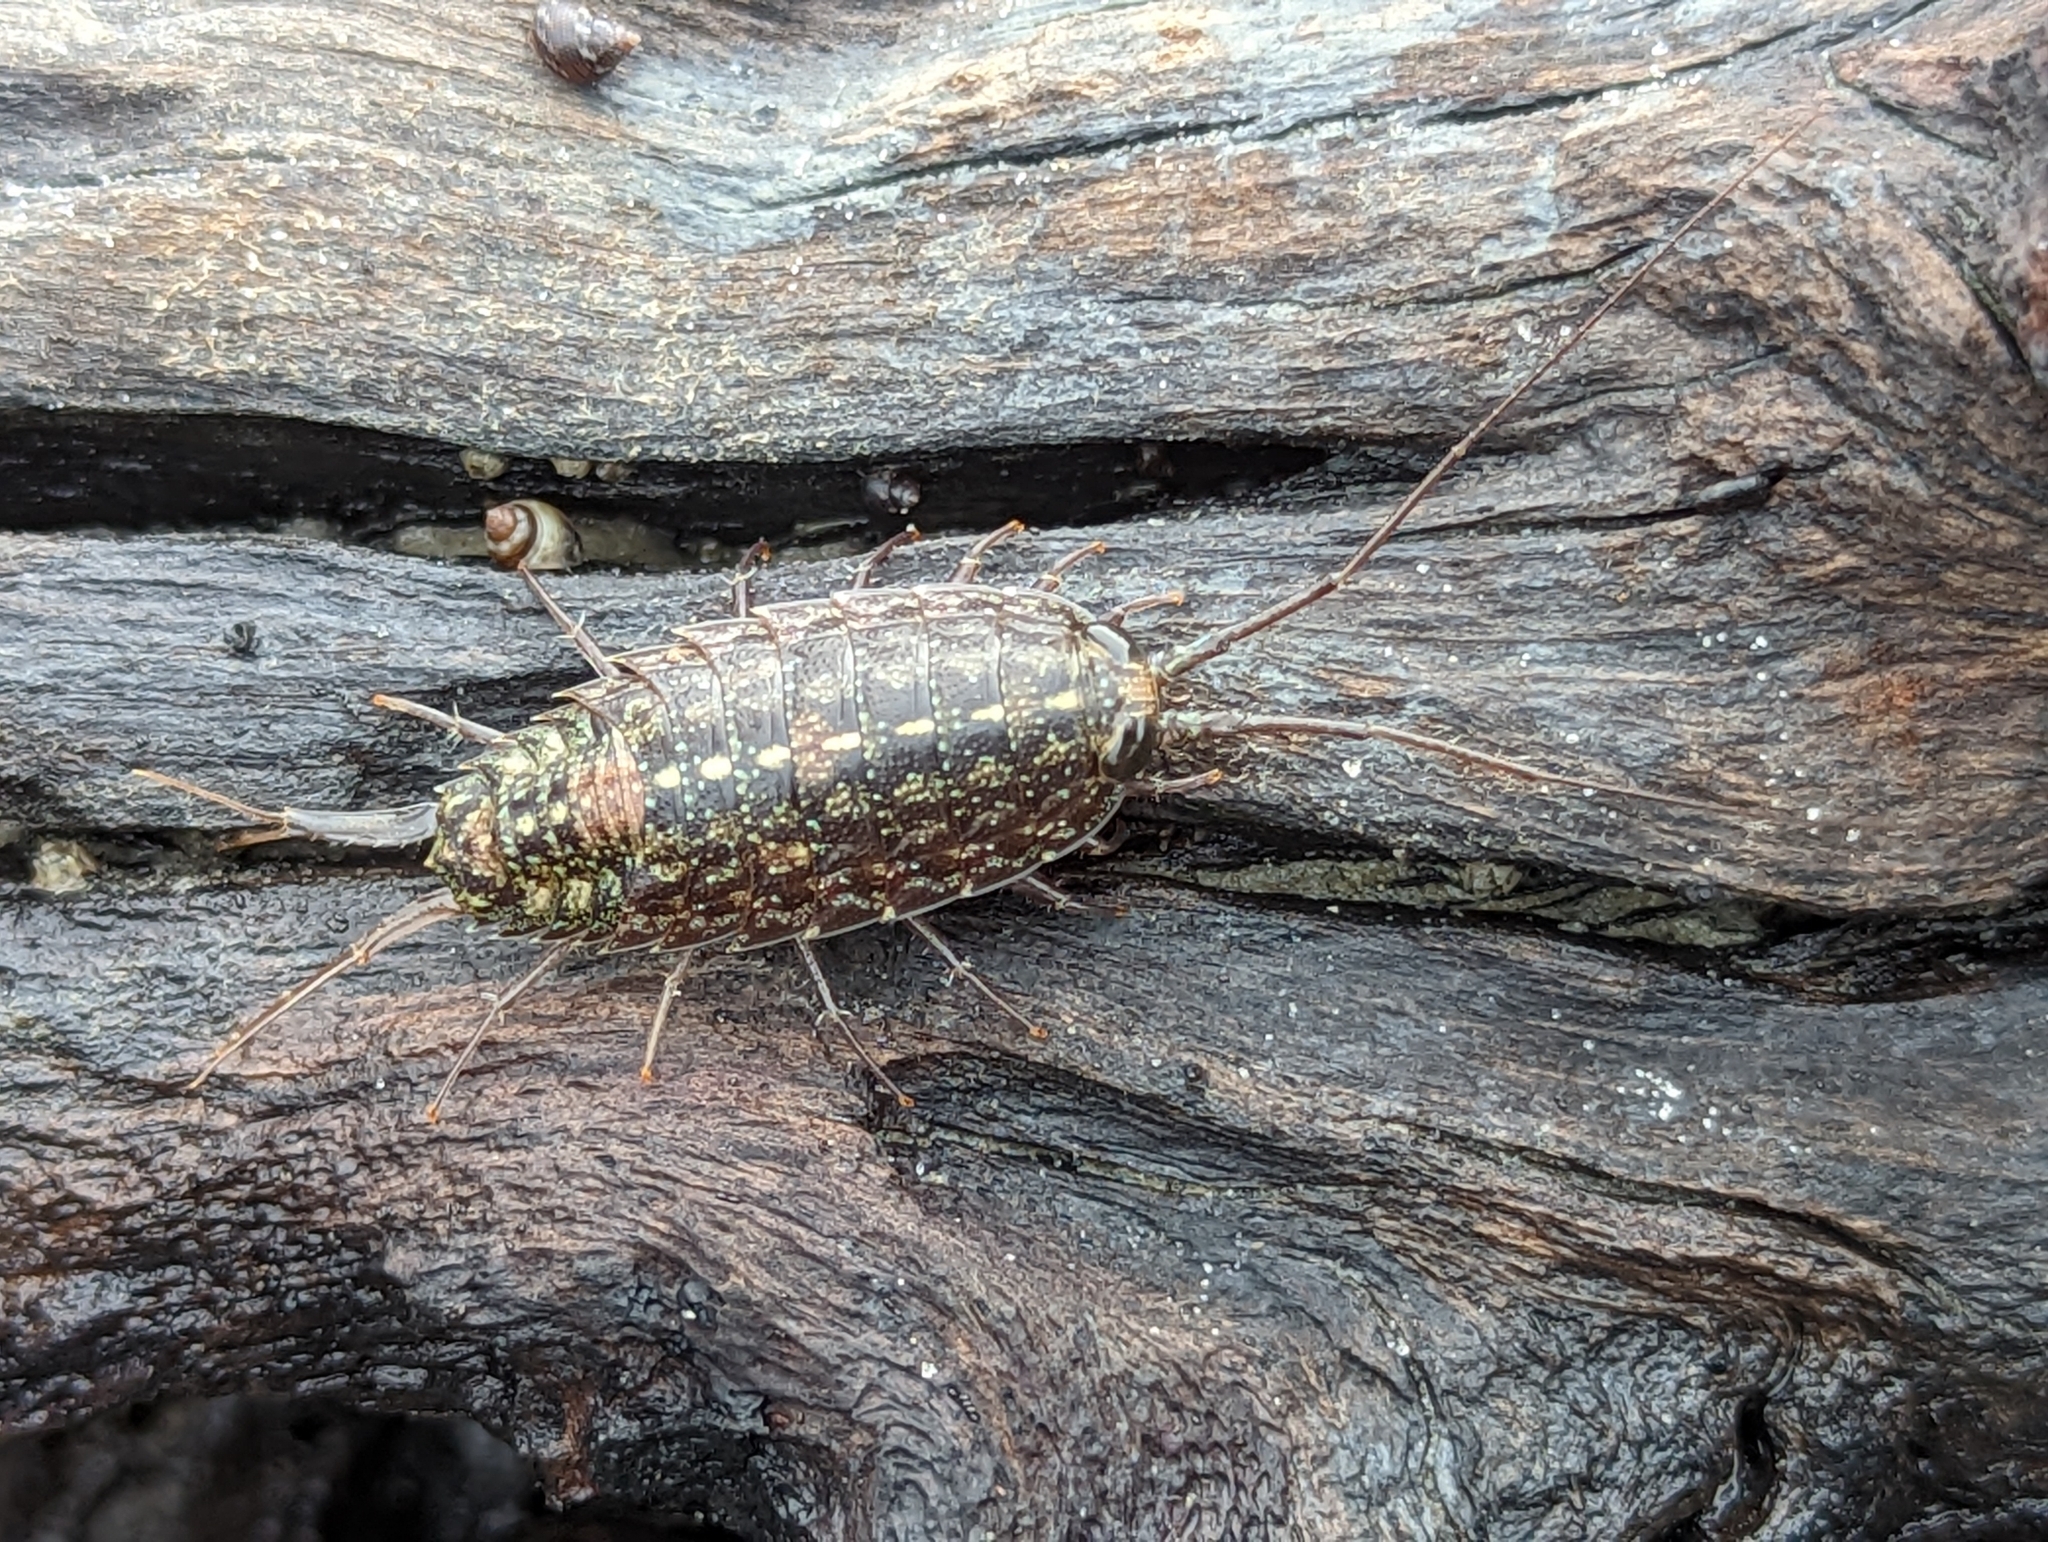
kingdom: Animalia
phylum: Arthropoda
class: Malacostraca
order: Isopoda
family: Ligiidae
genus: Ligia
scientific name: Ligia exotica
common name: Wharf roach
